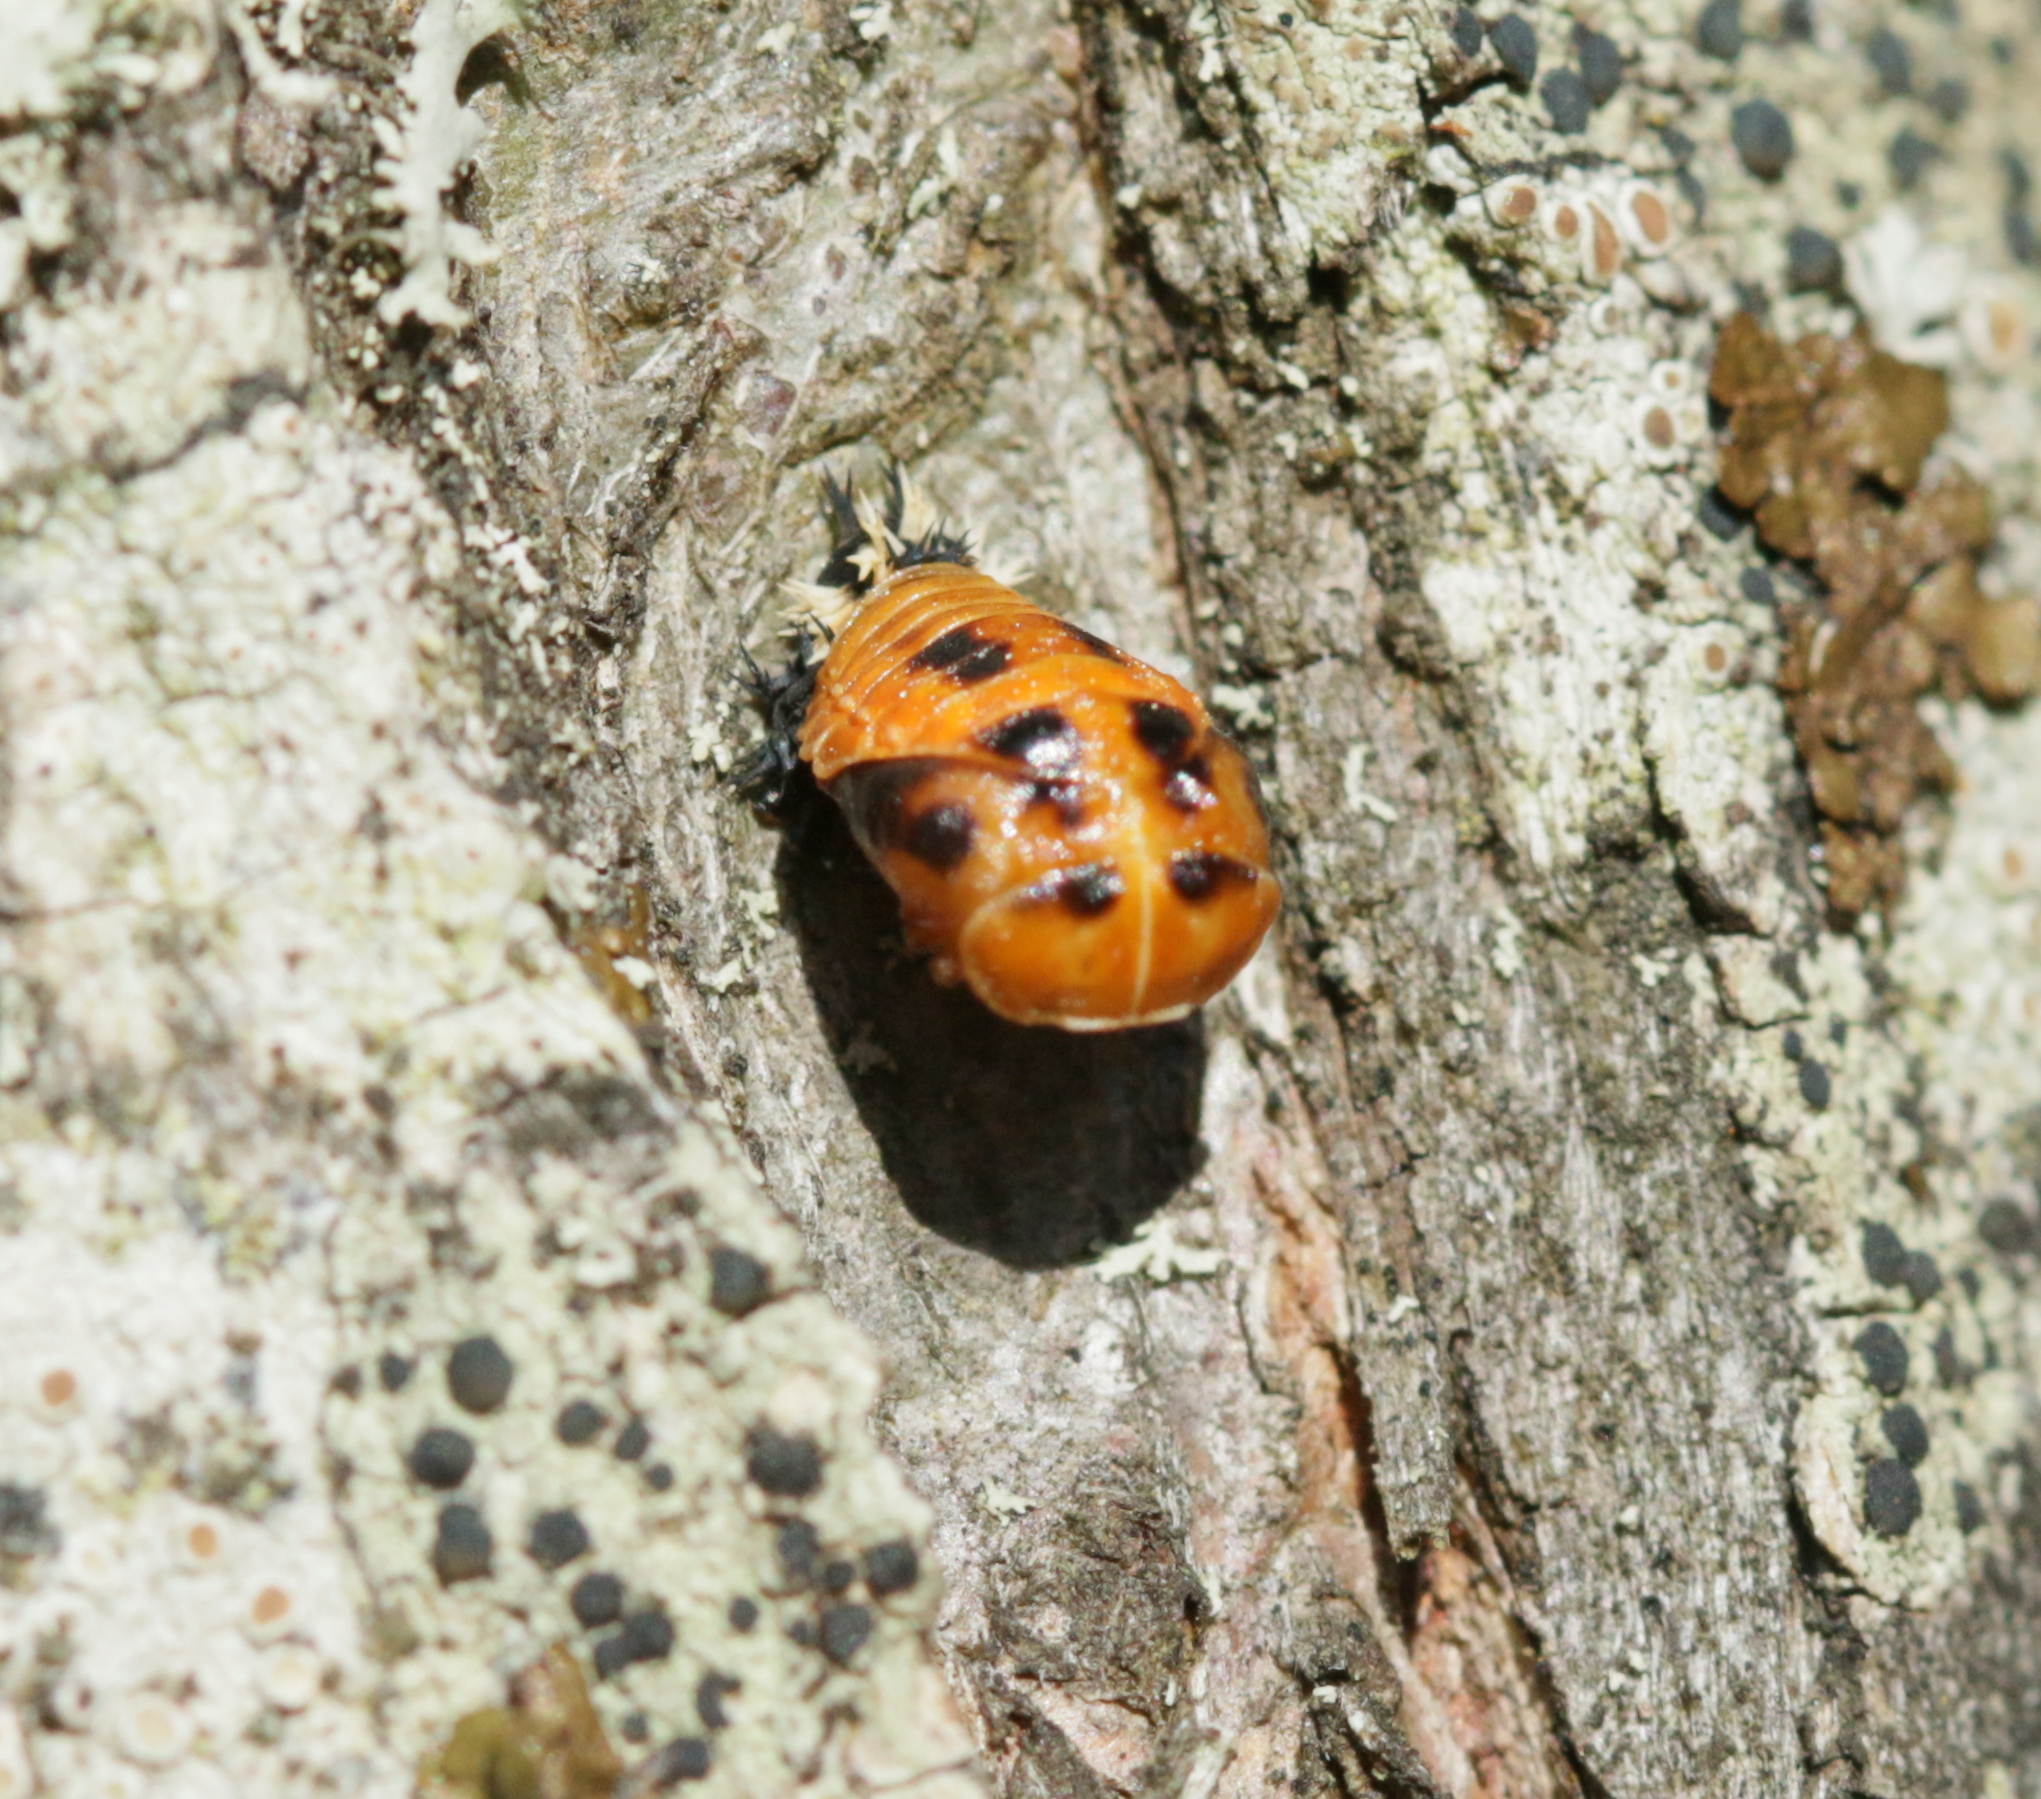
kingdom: Animalia
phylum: Arthropoda
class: Insecta
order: Coleoptera
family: Coccinellidae
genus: Harmonia
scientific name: Harmonia axyridis
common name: Harlequin ladybird
